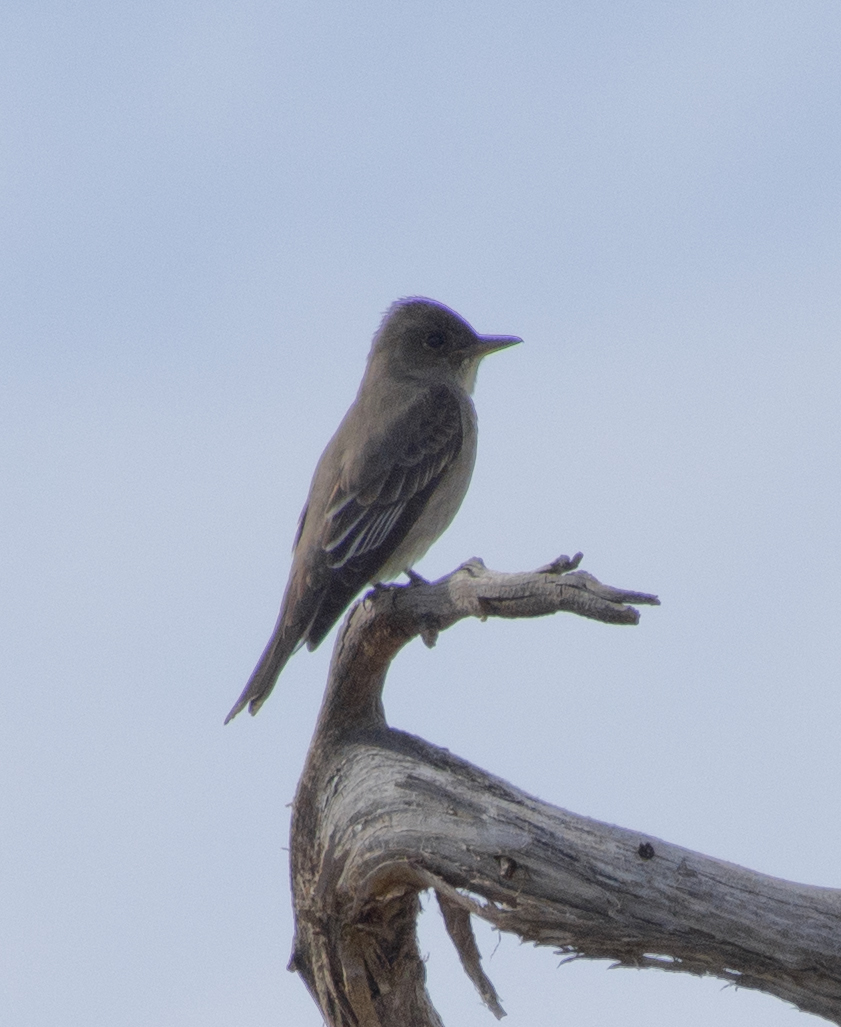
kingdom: Animalia
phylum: Chordata
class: Aves
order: Passeriformes
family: Tyrannidae
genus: Contopus
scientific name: Contopus cooperi
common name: Olive-sided flycatcher
